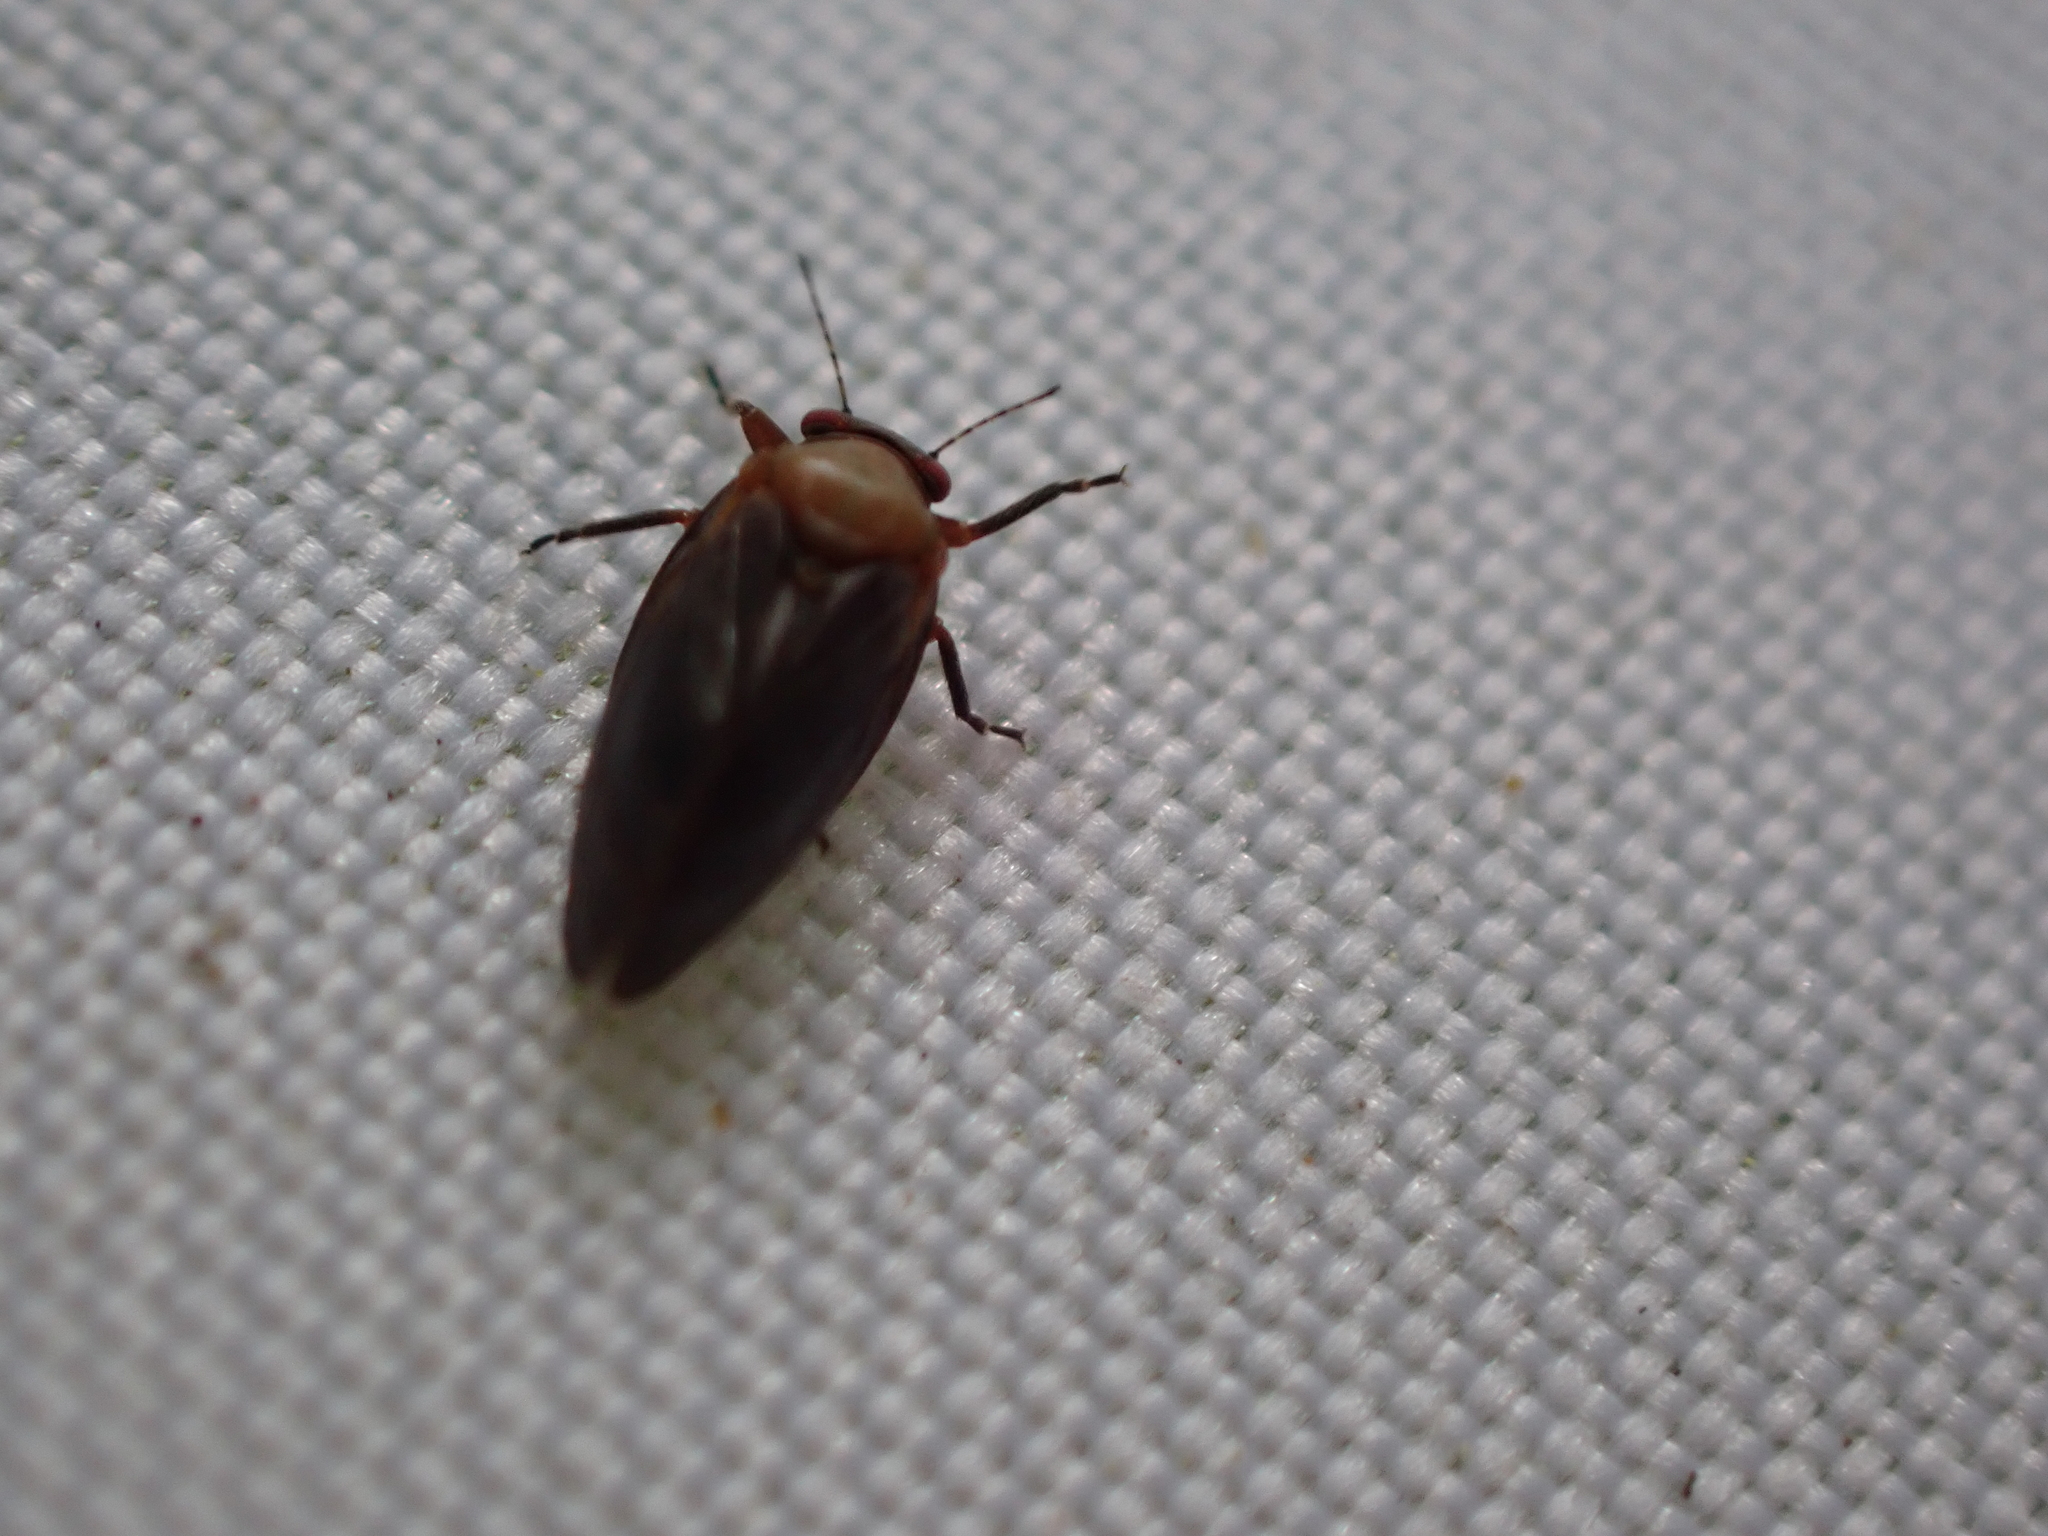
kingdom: Animalia
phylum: Arthropoda
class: Insecta
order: Hemiptera
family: Aphalaridae
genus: Pachypsylla
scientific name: Pachypsylla celtidisgemma
